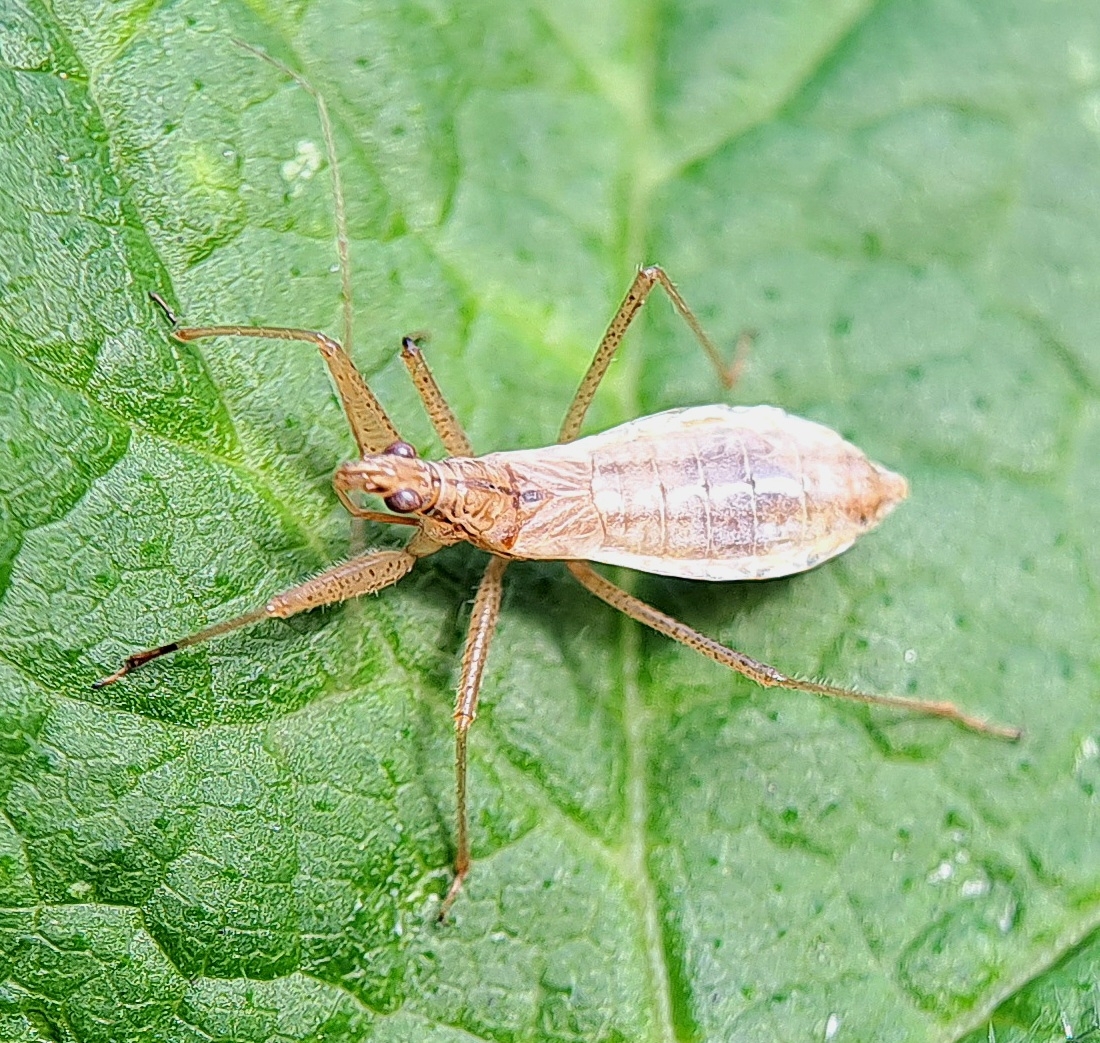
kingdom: Animalia
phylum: Arthropoda
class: Insecta
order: Hemiptera
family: Nabidae
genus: Nabis
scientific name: Nabis limbatus
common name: Marsh damselbug
